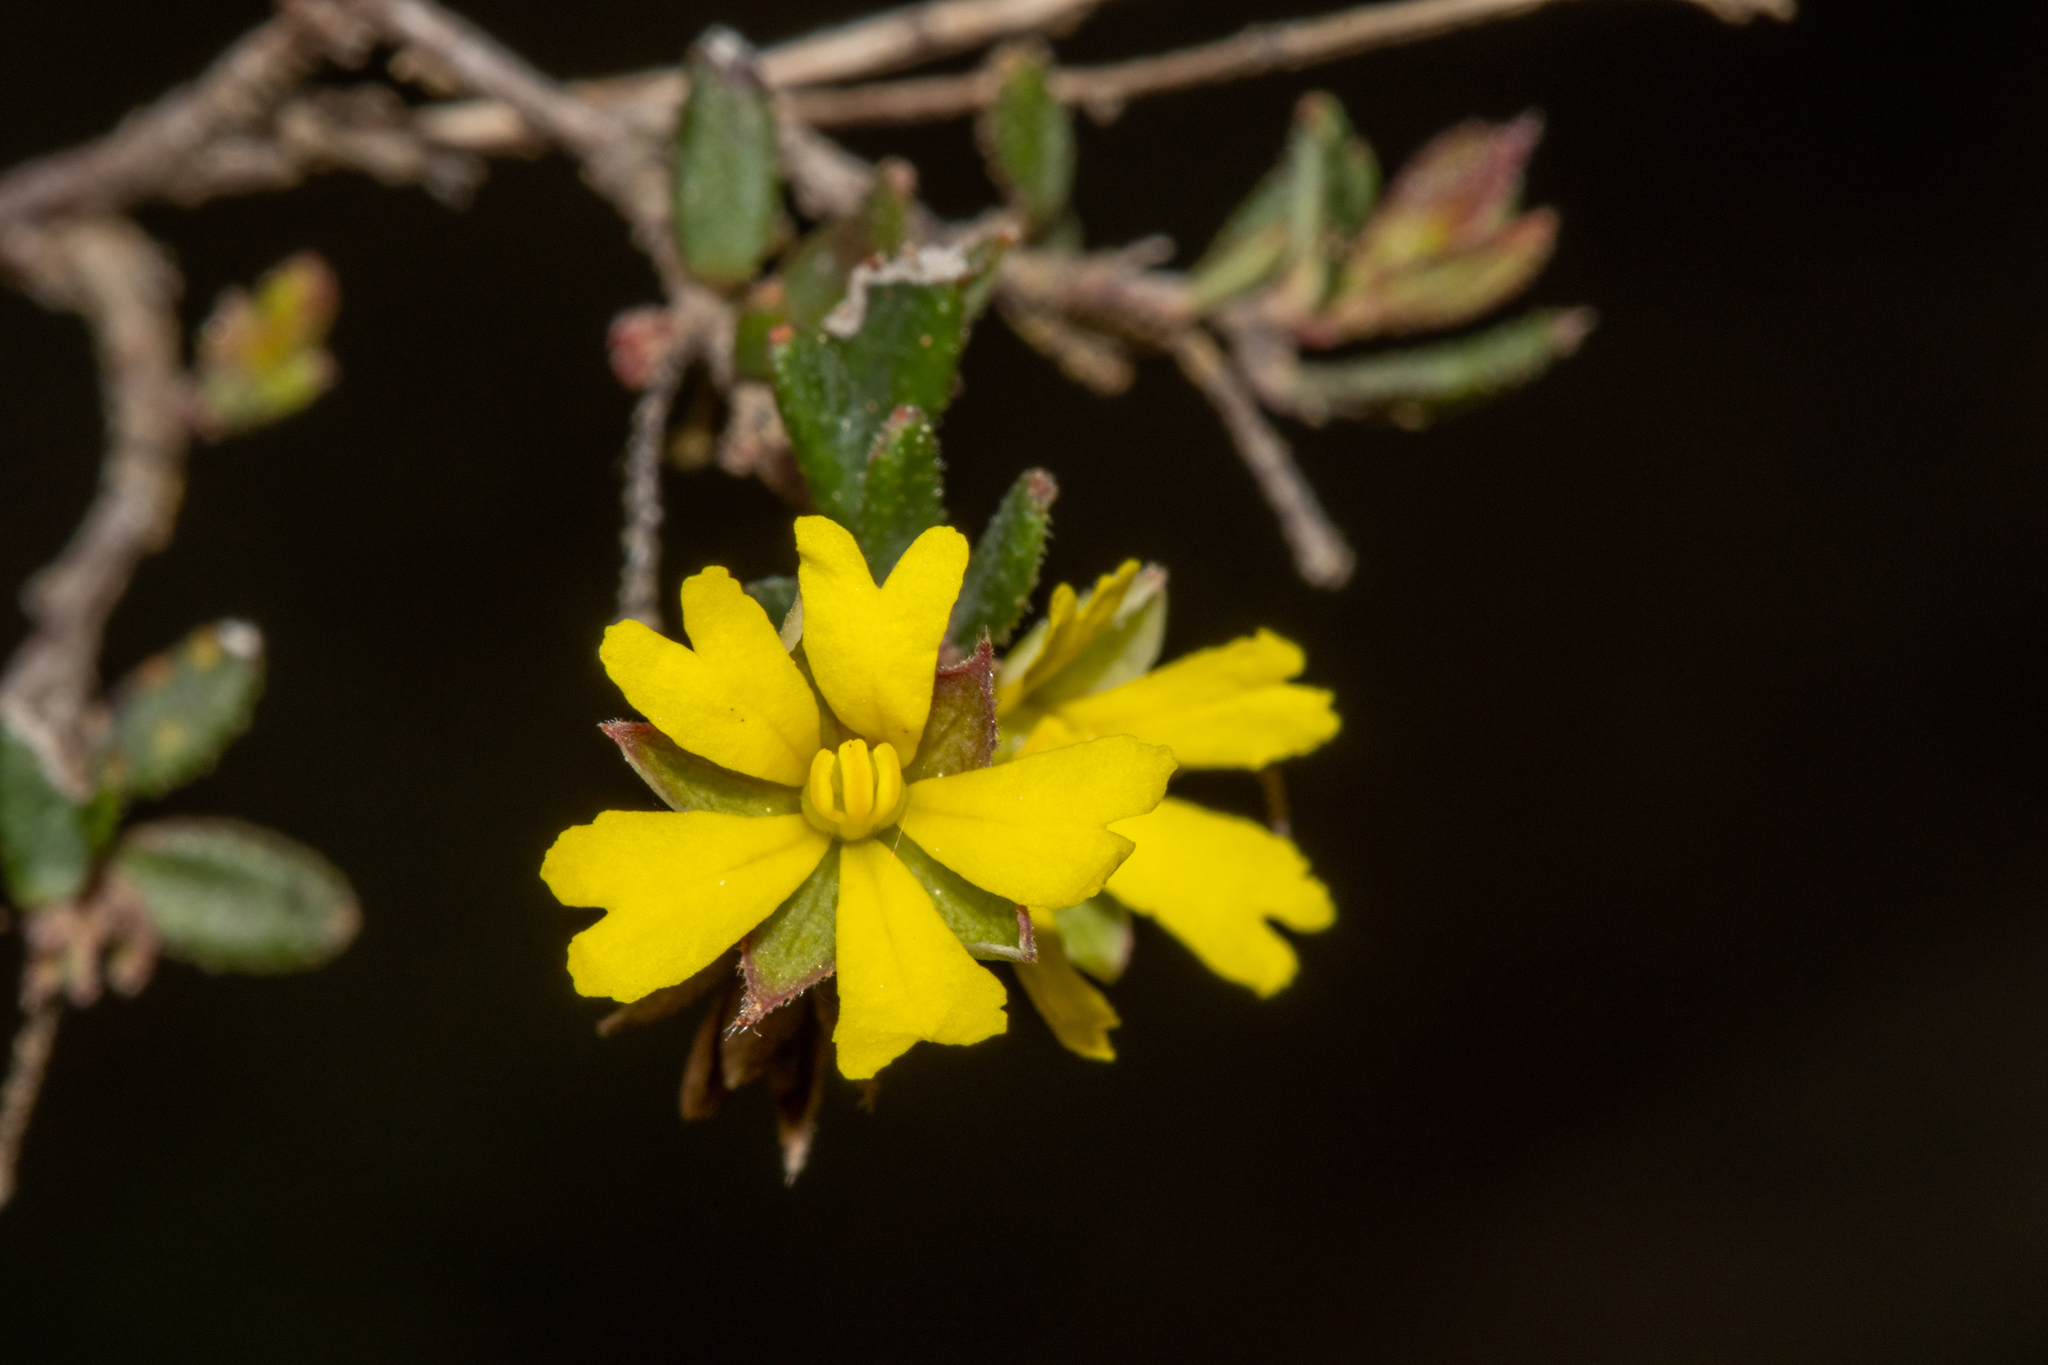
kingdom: Plantae
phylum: Tracheophyta
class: Magnoliopsida
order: Dilleniales
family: Dilleniaceae
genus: Hibbertia
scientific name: Hibbertia
